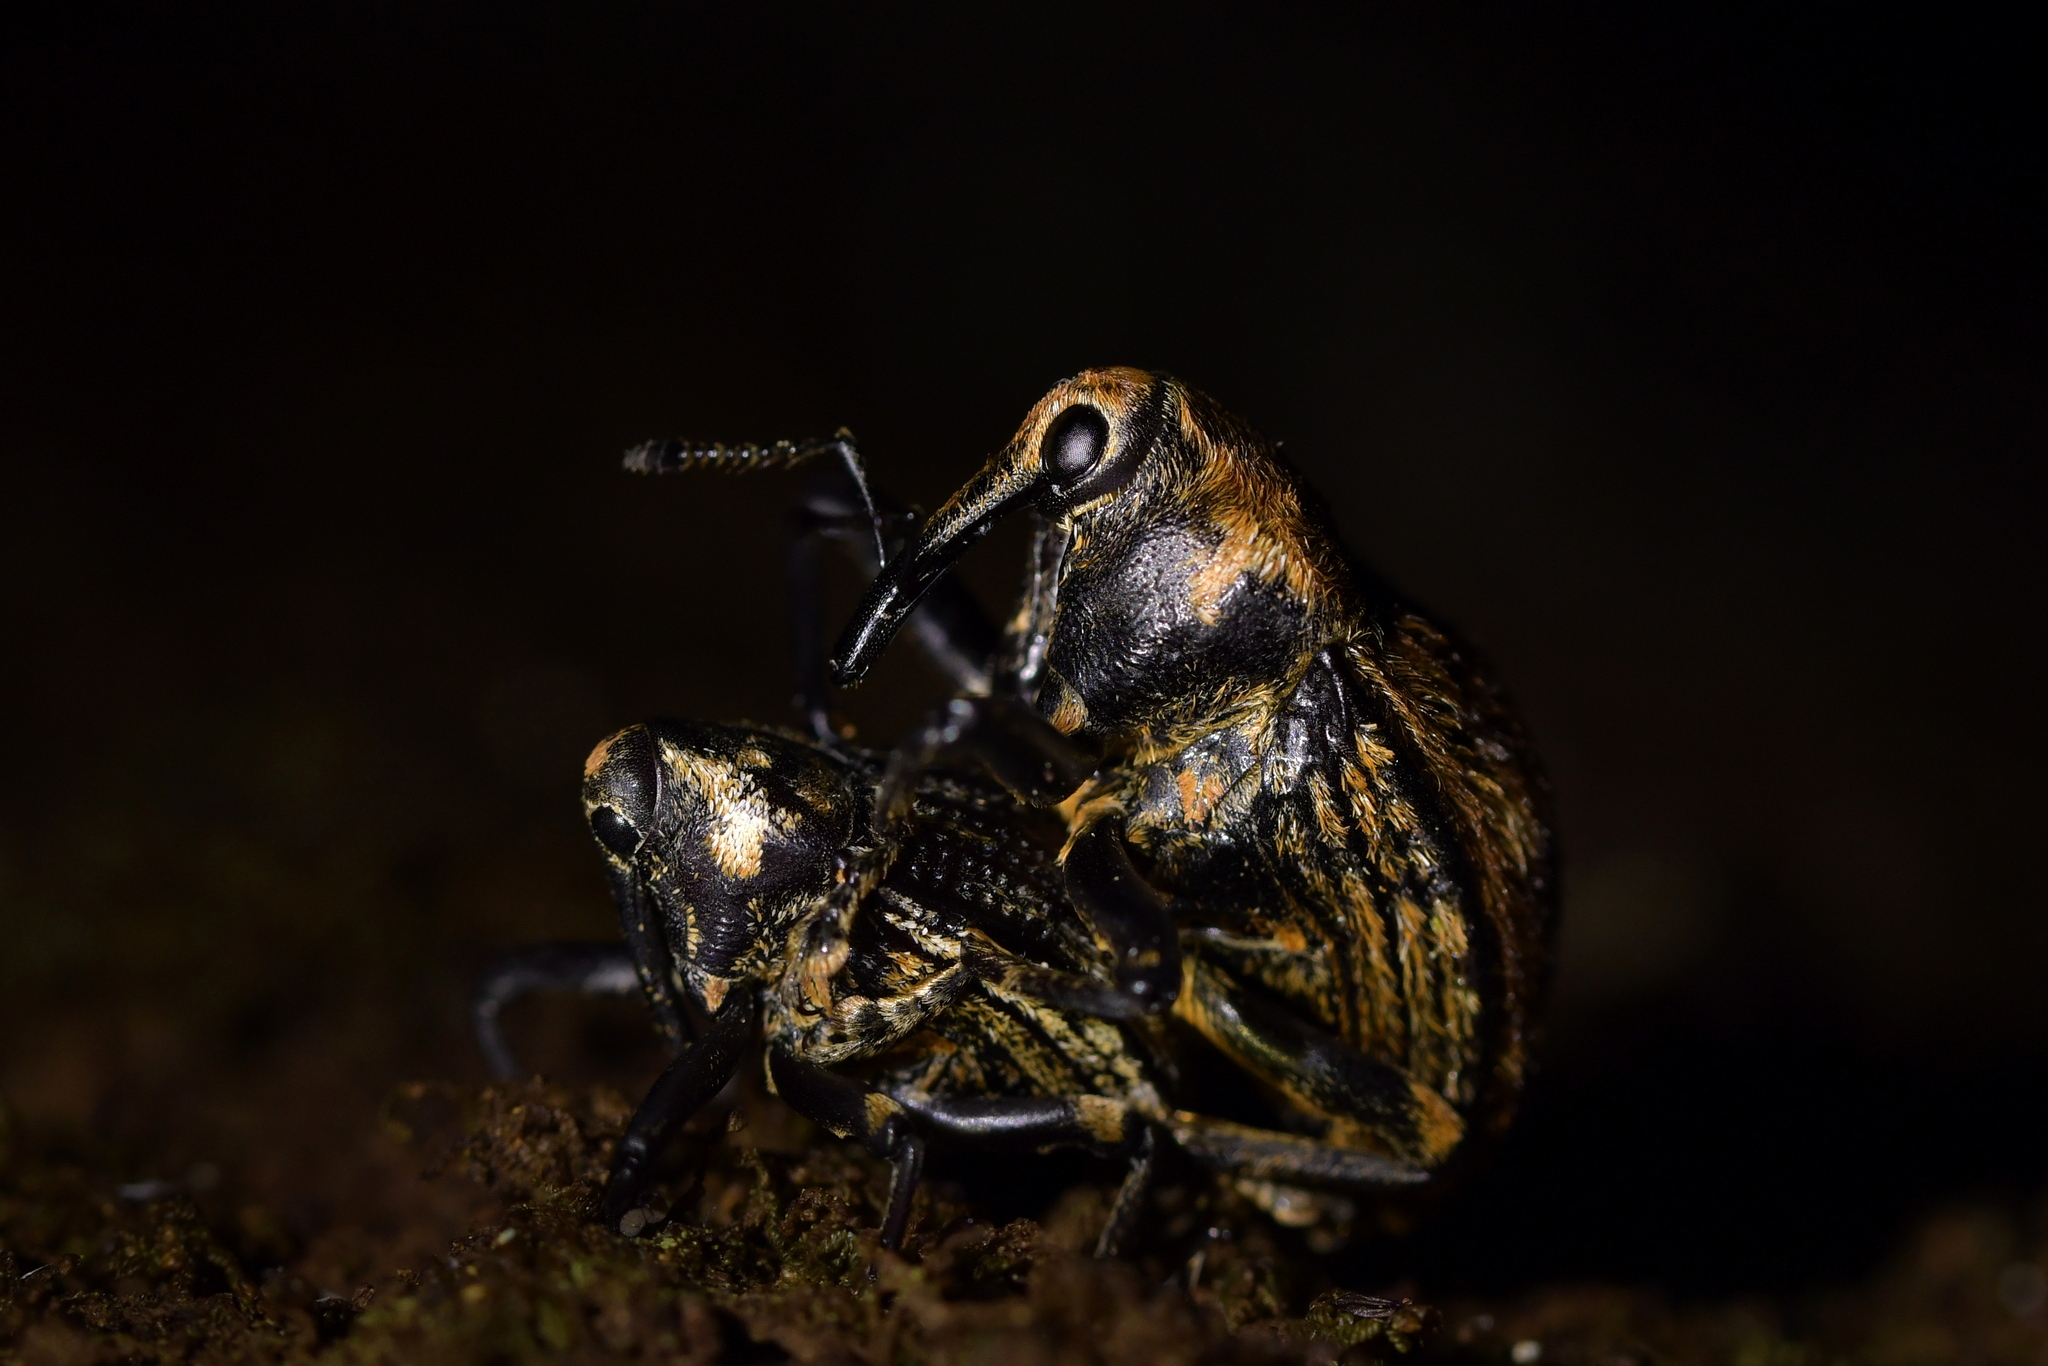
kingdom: Animalia
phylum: Arthropoda
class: Insecta
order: Coleoptera
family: Curculionidae
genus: Rhynchodes
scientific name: Rhynchodes ursus
